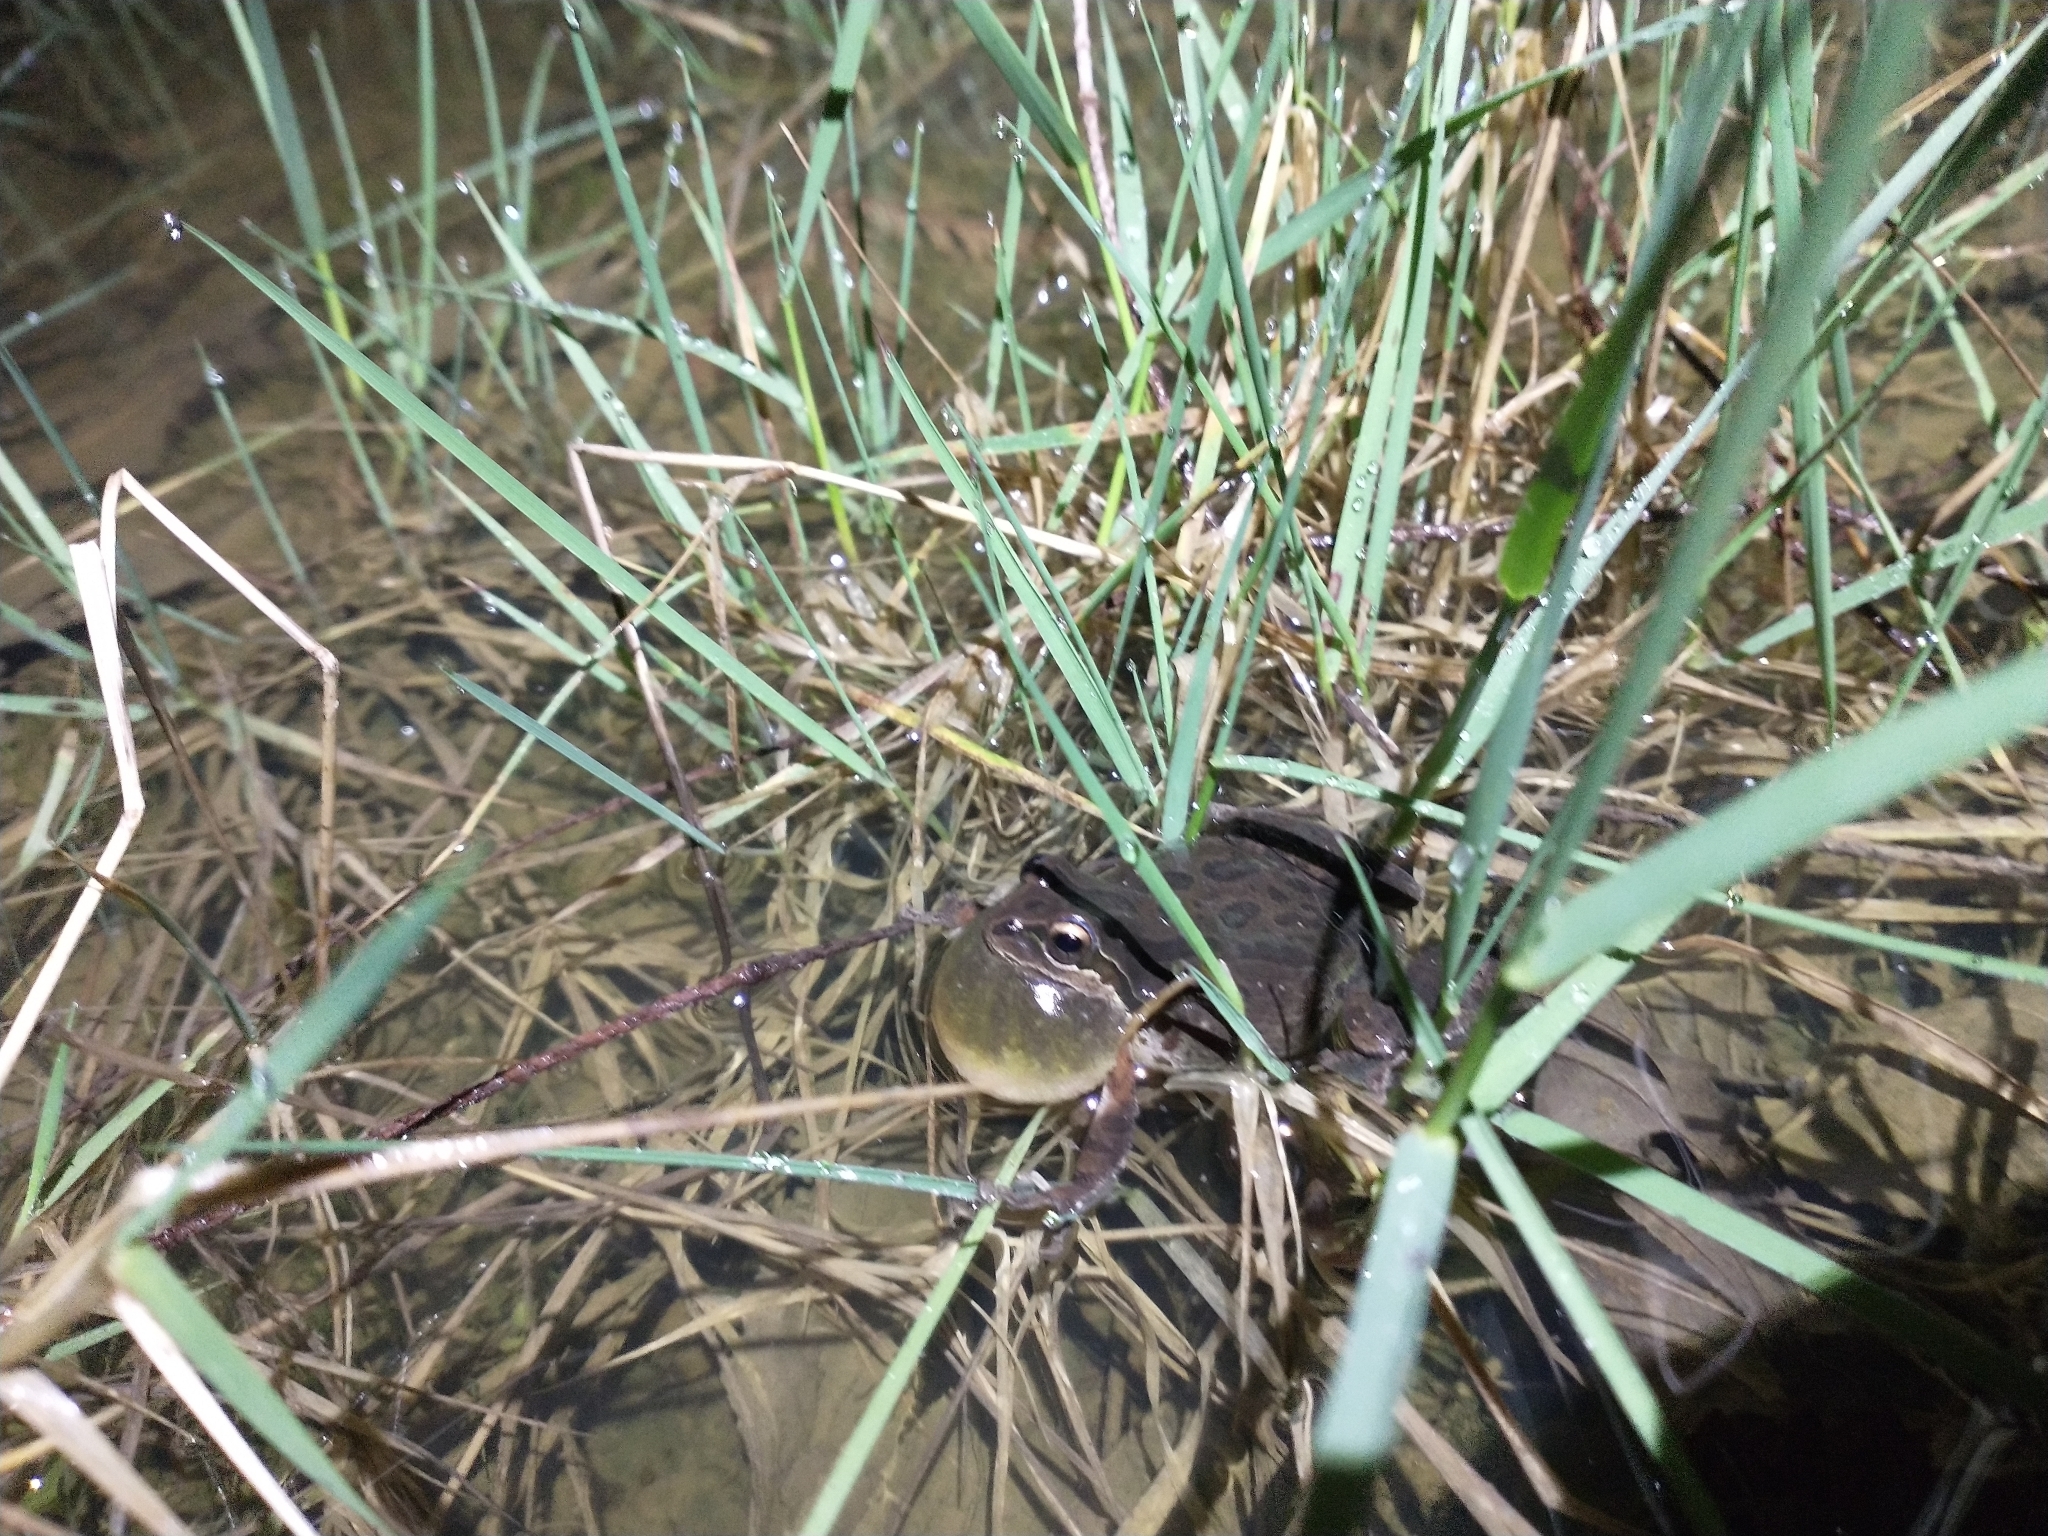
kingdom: Animalia
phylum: Chordata
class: Amphibia
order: Anura
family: Hylidae
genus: Pseudacris
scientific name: Pseudacris regilla
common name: Pacific chorus frog
